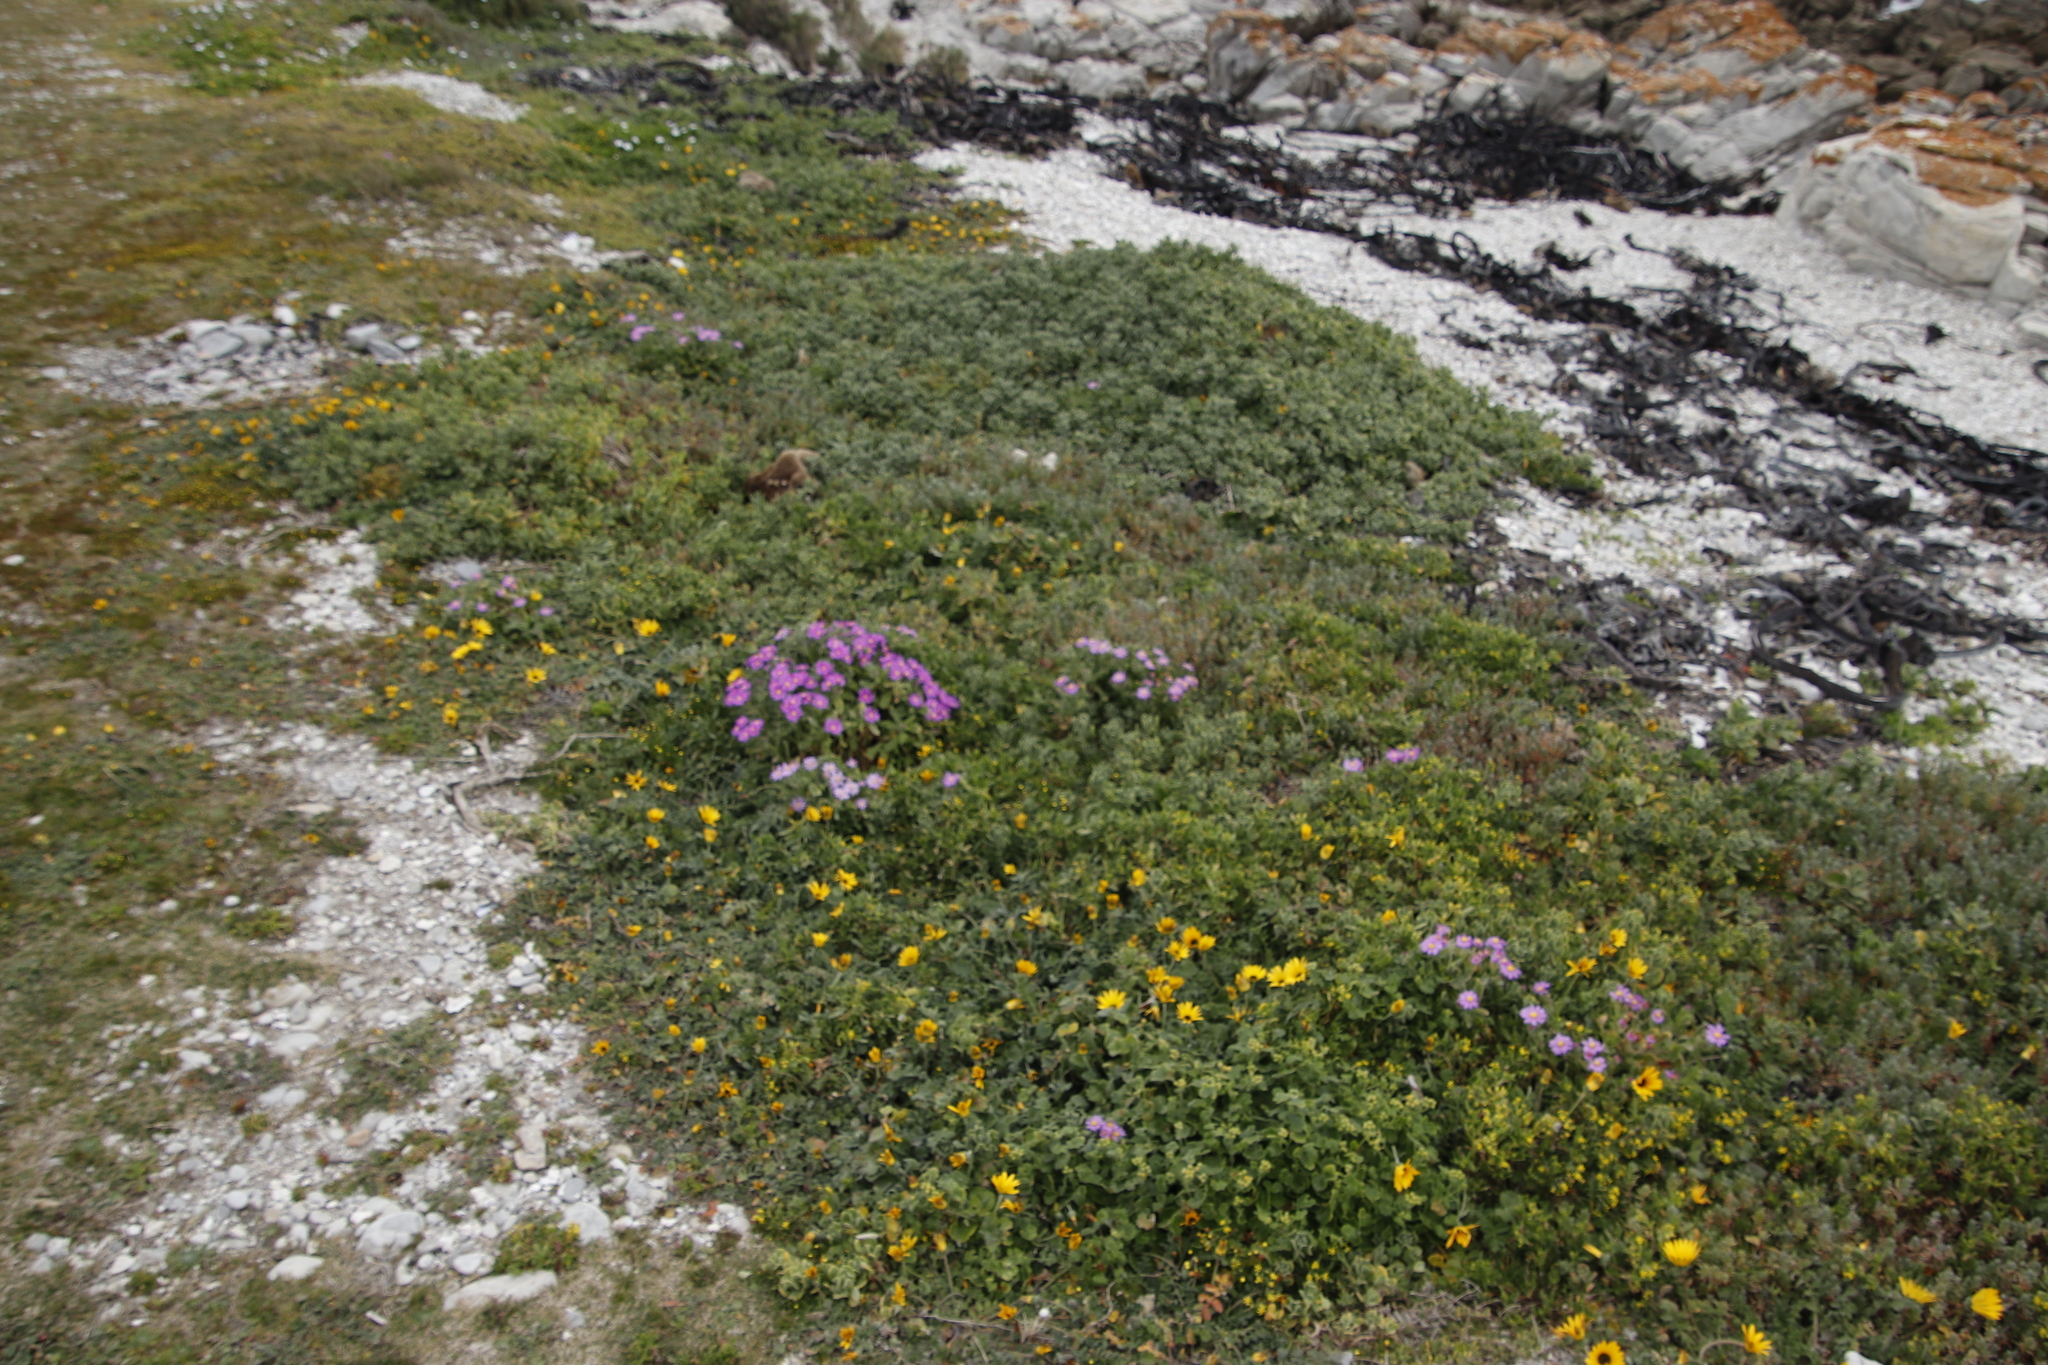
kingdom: Plantae
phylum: Tracheophyta
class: Magnoliopsida
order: Caryophyllales
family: Aizoaceae
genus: Mesembryanthemum
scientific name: Mesembryanthemum vanrensburgii
